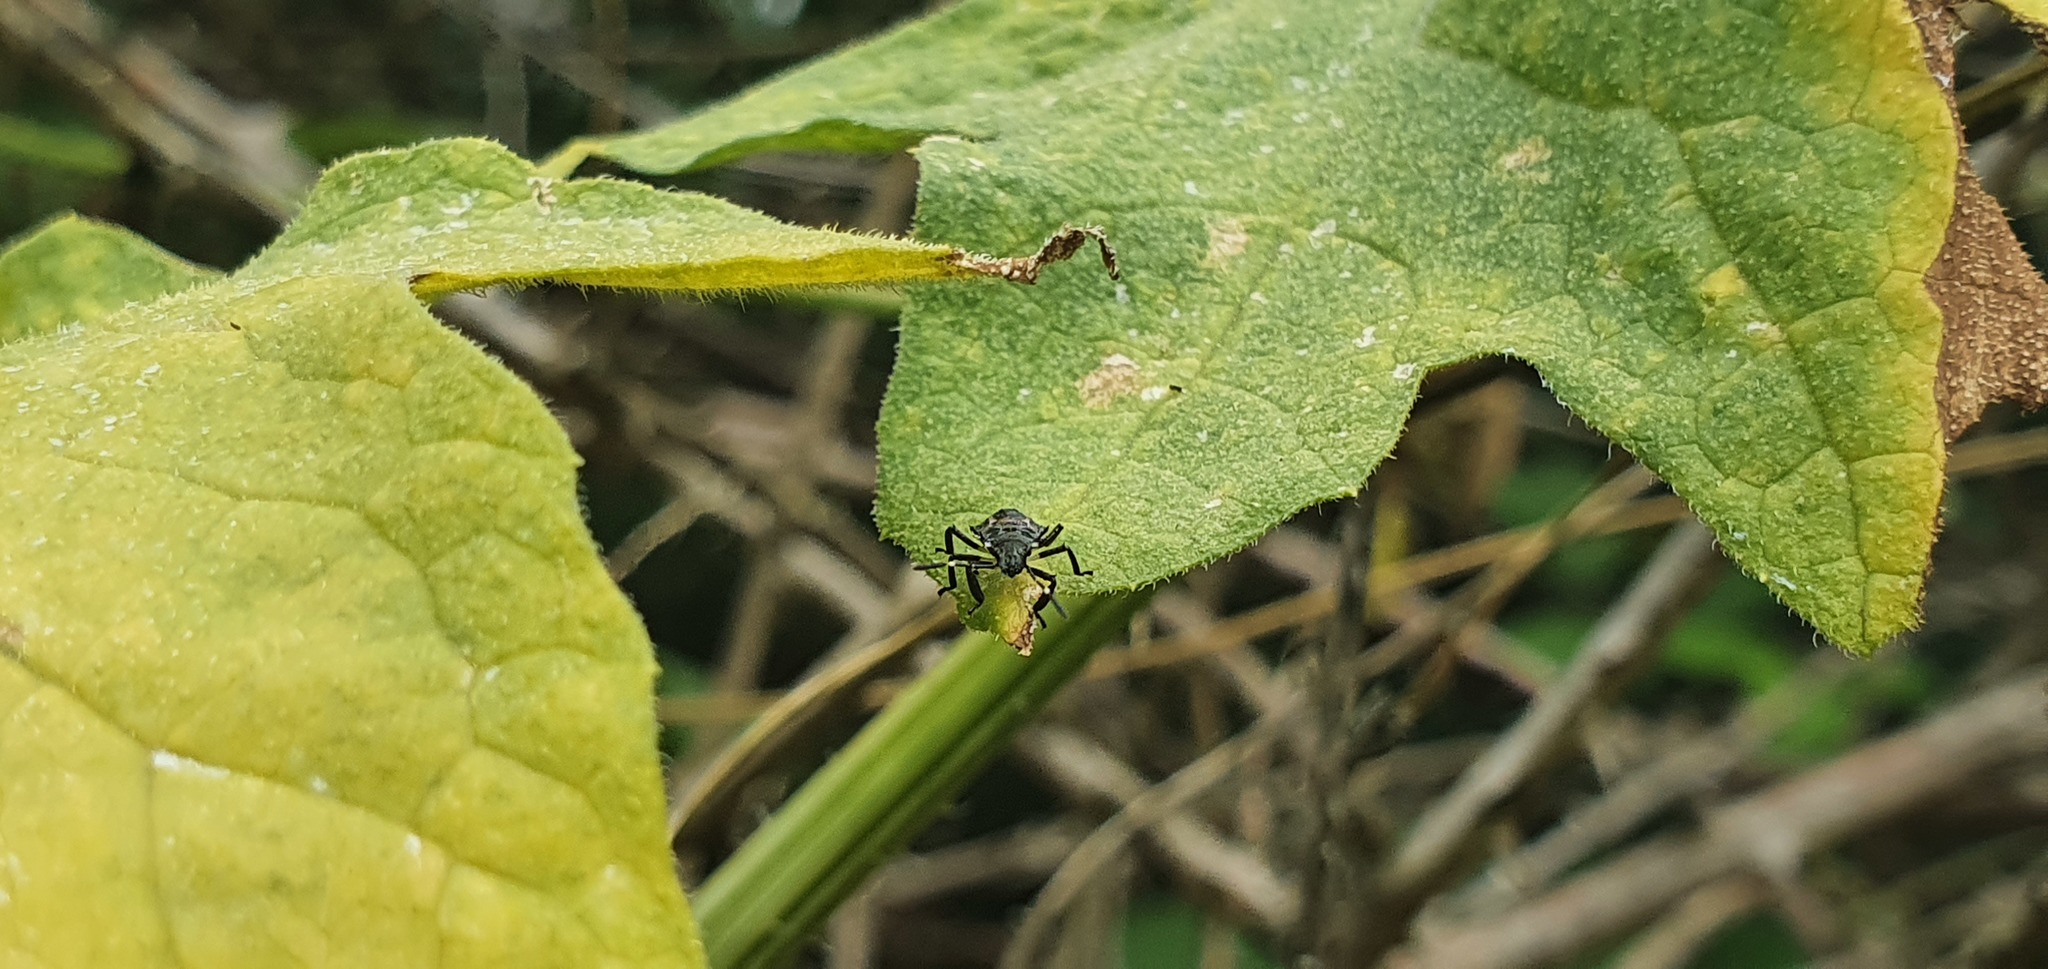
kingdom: Animalia
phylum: Arthropoda
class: Insecta
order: Hemiptera
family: Pentatomidae
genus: Halyomorpha
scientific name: Halyomorpha halys
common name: Brown marmorated stink bug
